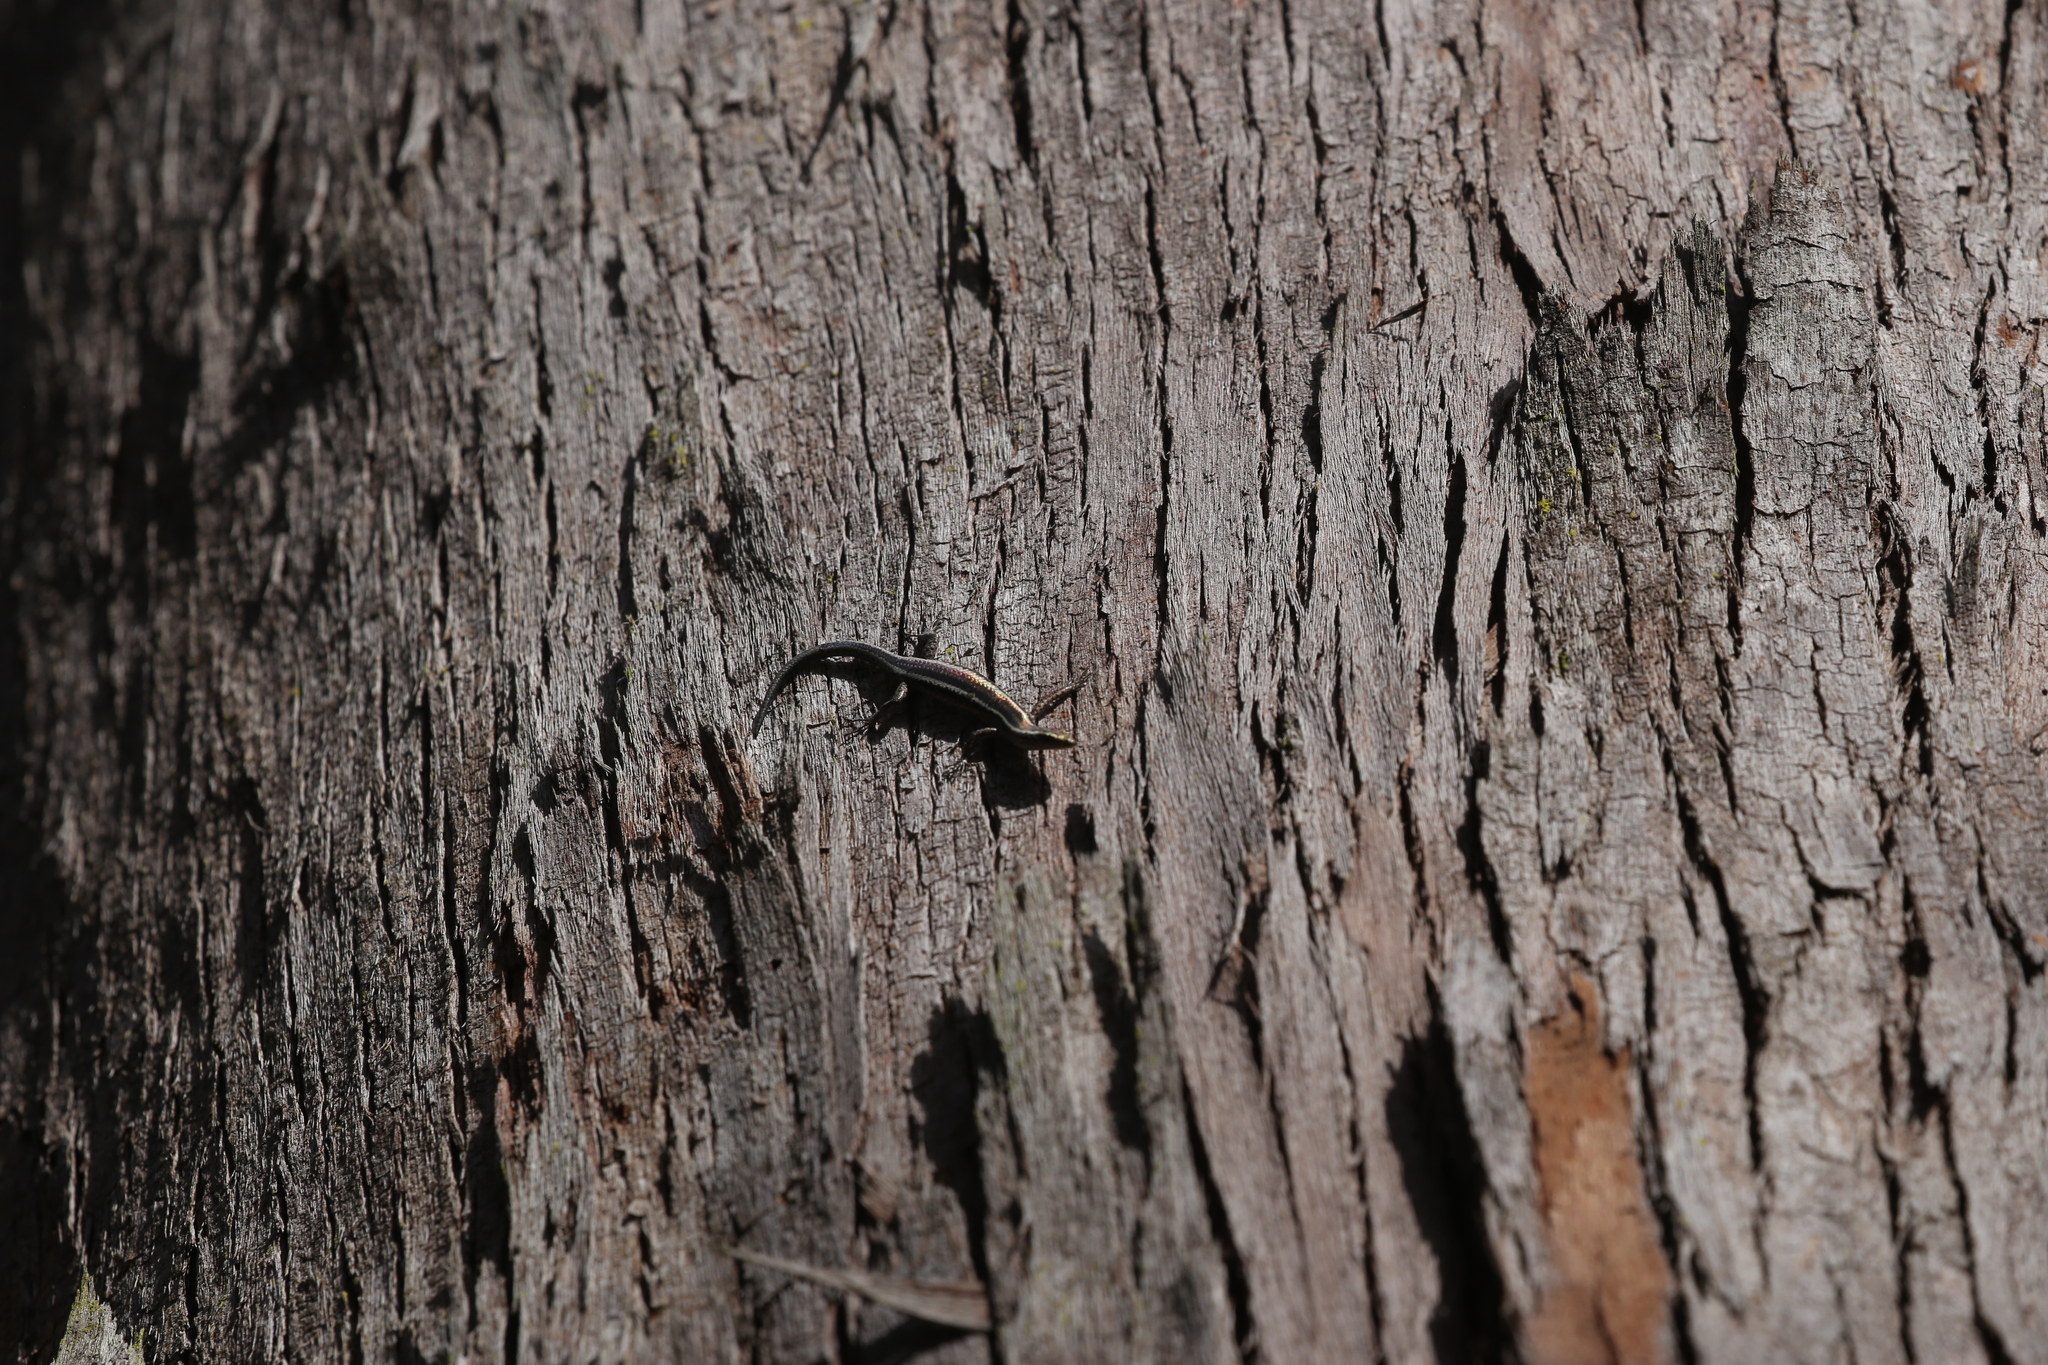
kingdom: Animalia
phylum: Chordata
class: Squamata
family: Scincidae
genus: Cryptoblepharus
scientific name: Cryptoblepharus pulcher
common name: Elegant snake-eyed skink
